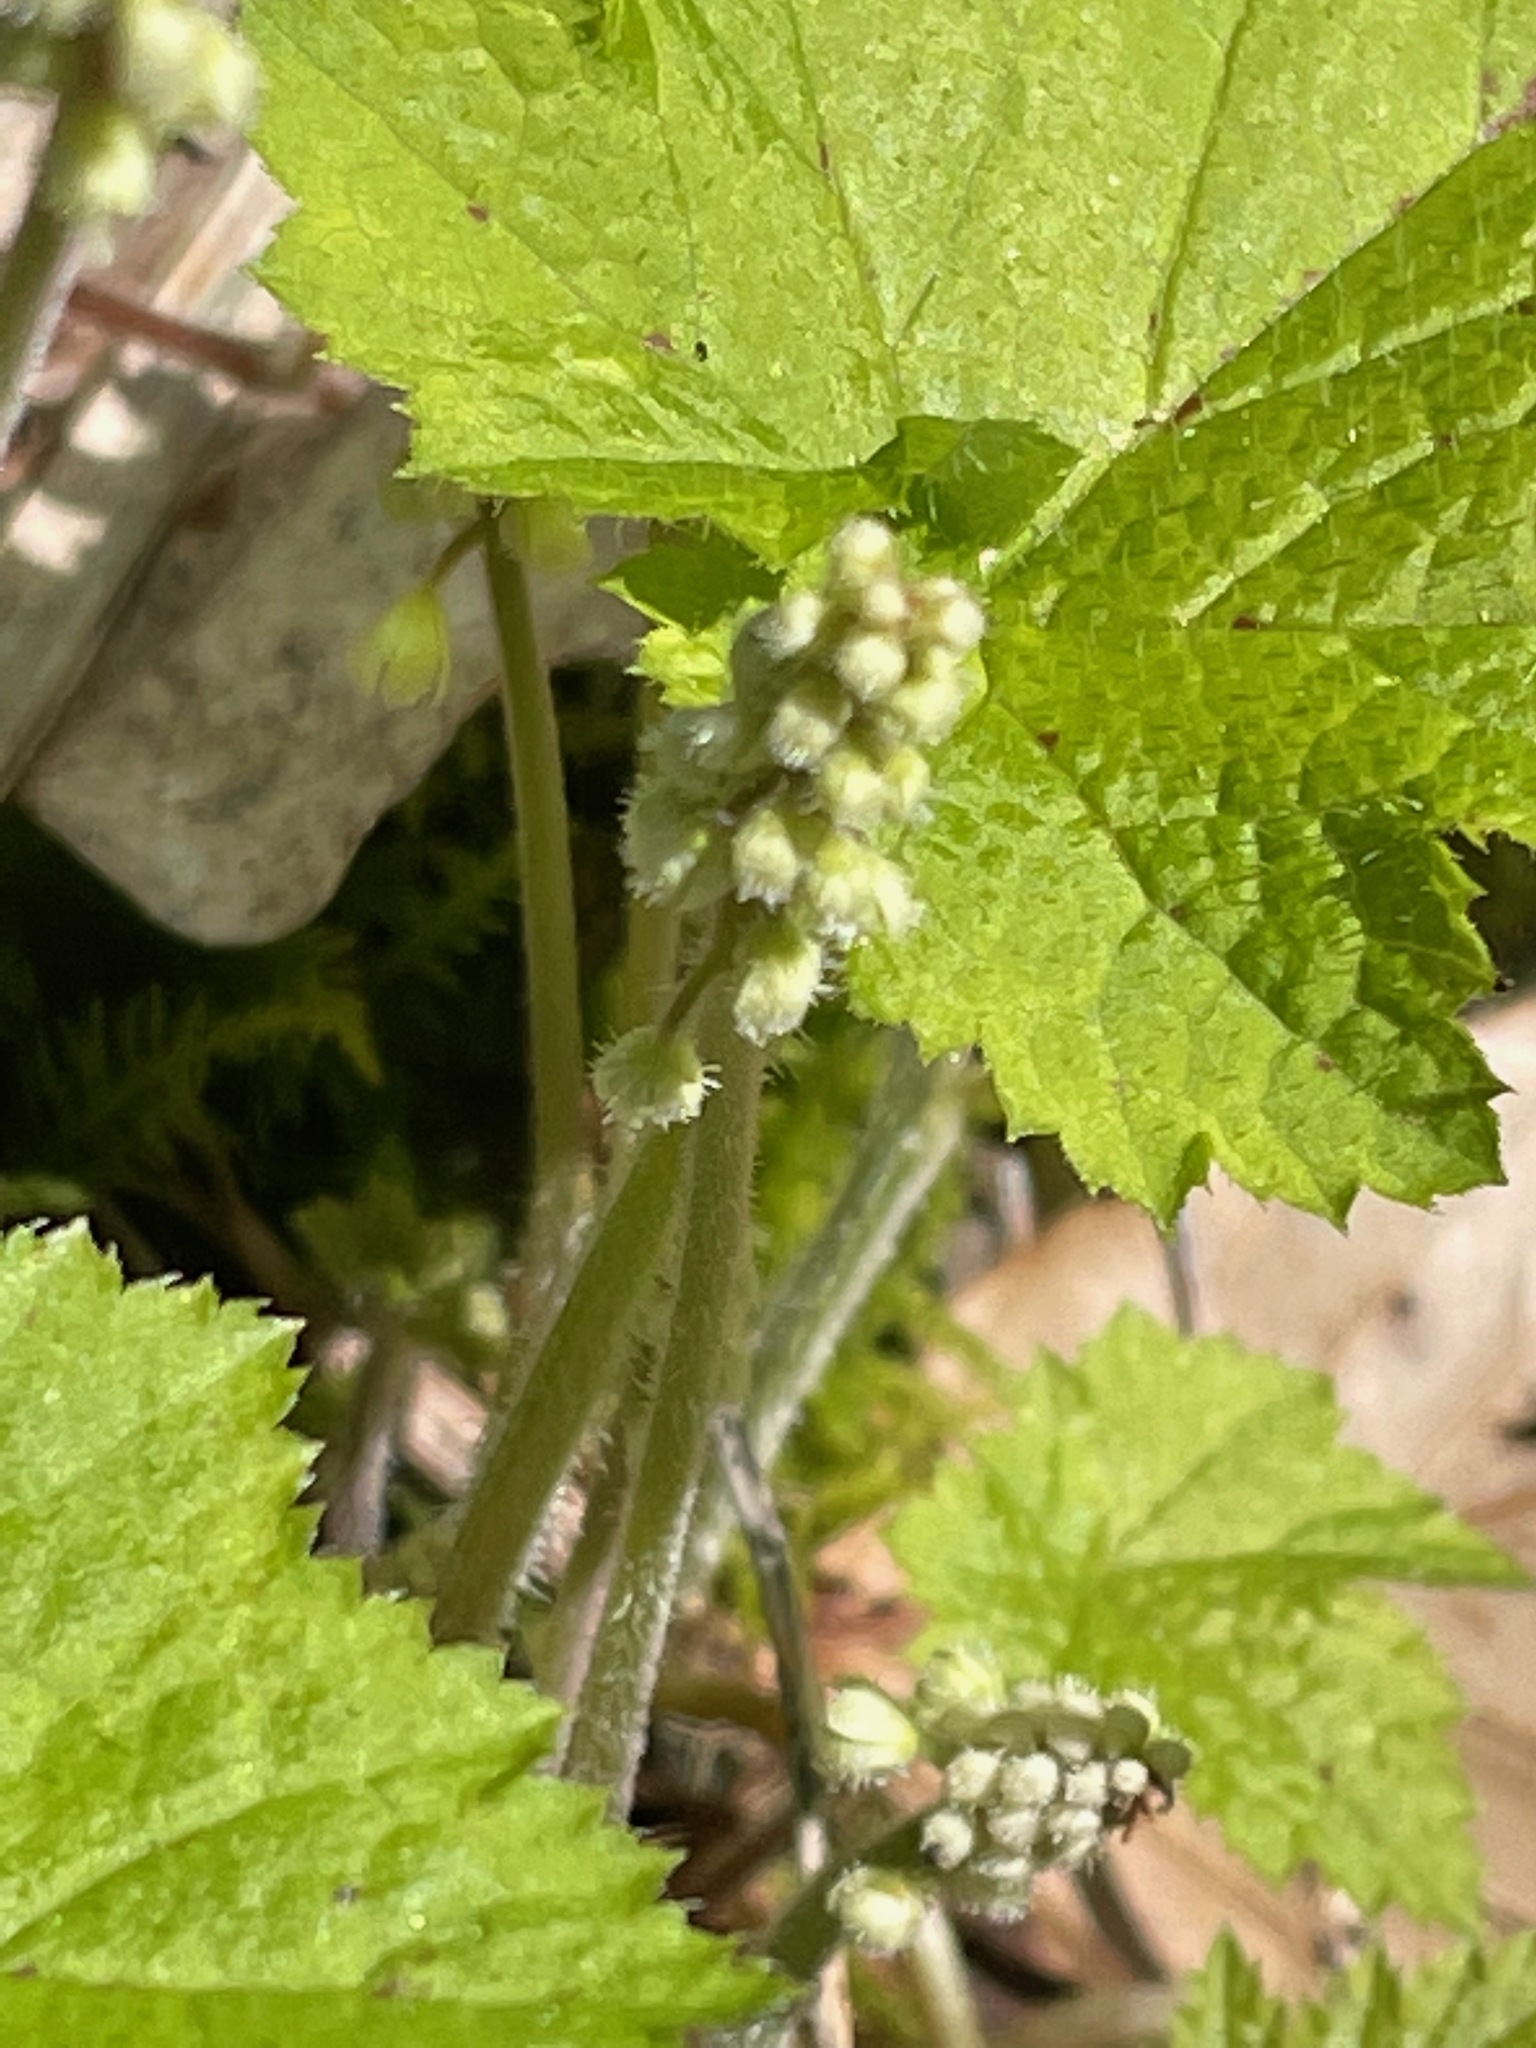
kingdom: Plantae
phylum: Tracheophyta
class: Magnoliopsida
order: Saxifragales
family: Saxifragaceae
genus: Tiarella
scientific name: Tiarella stolonifera
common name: Stoloniferous foamflower
